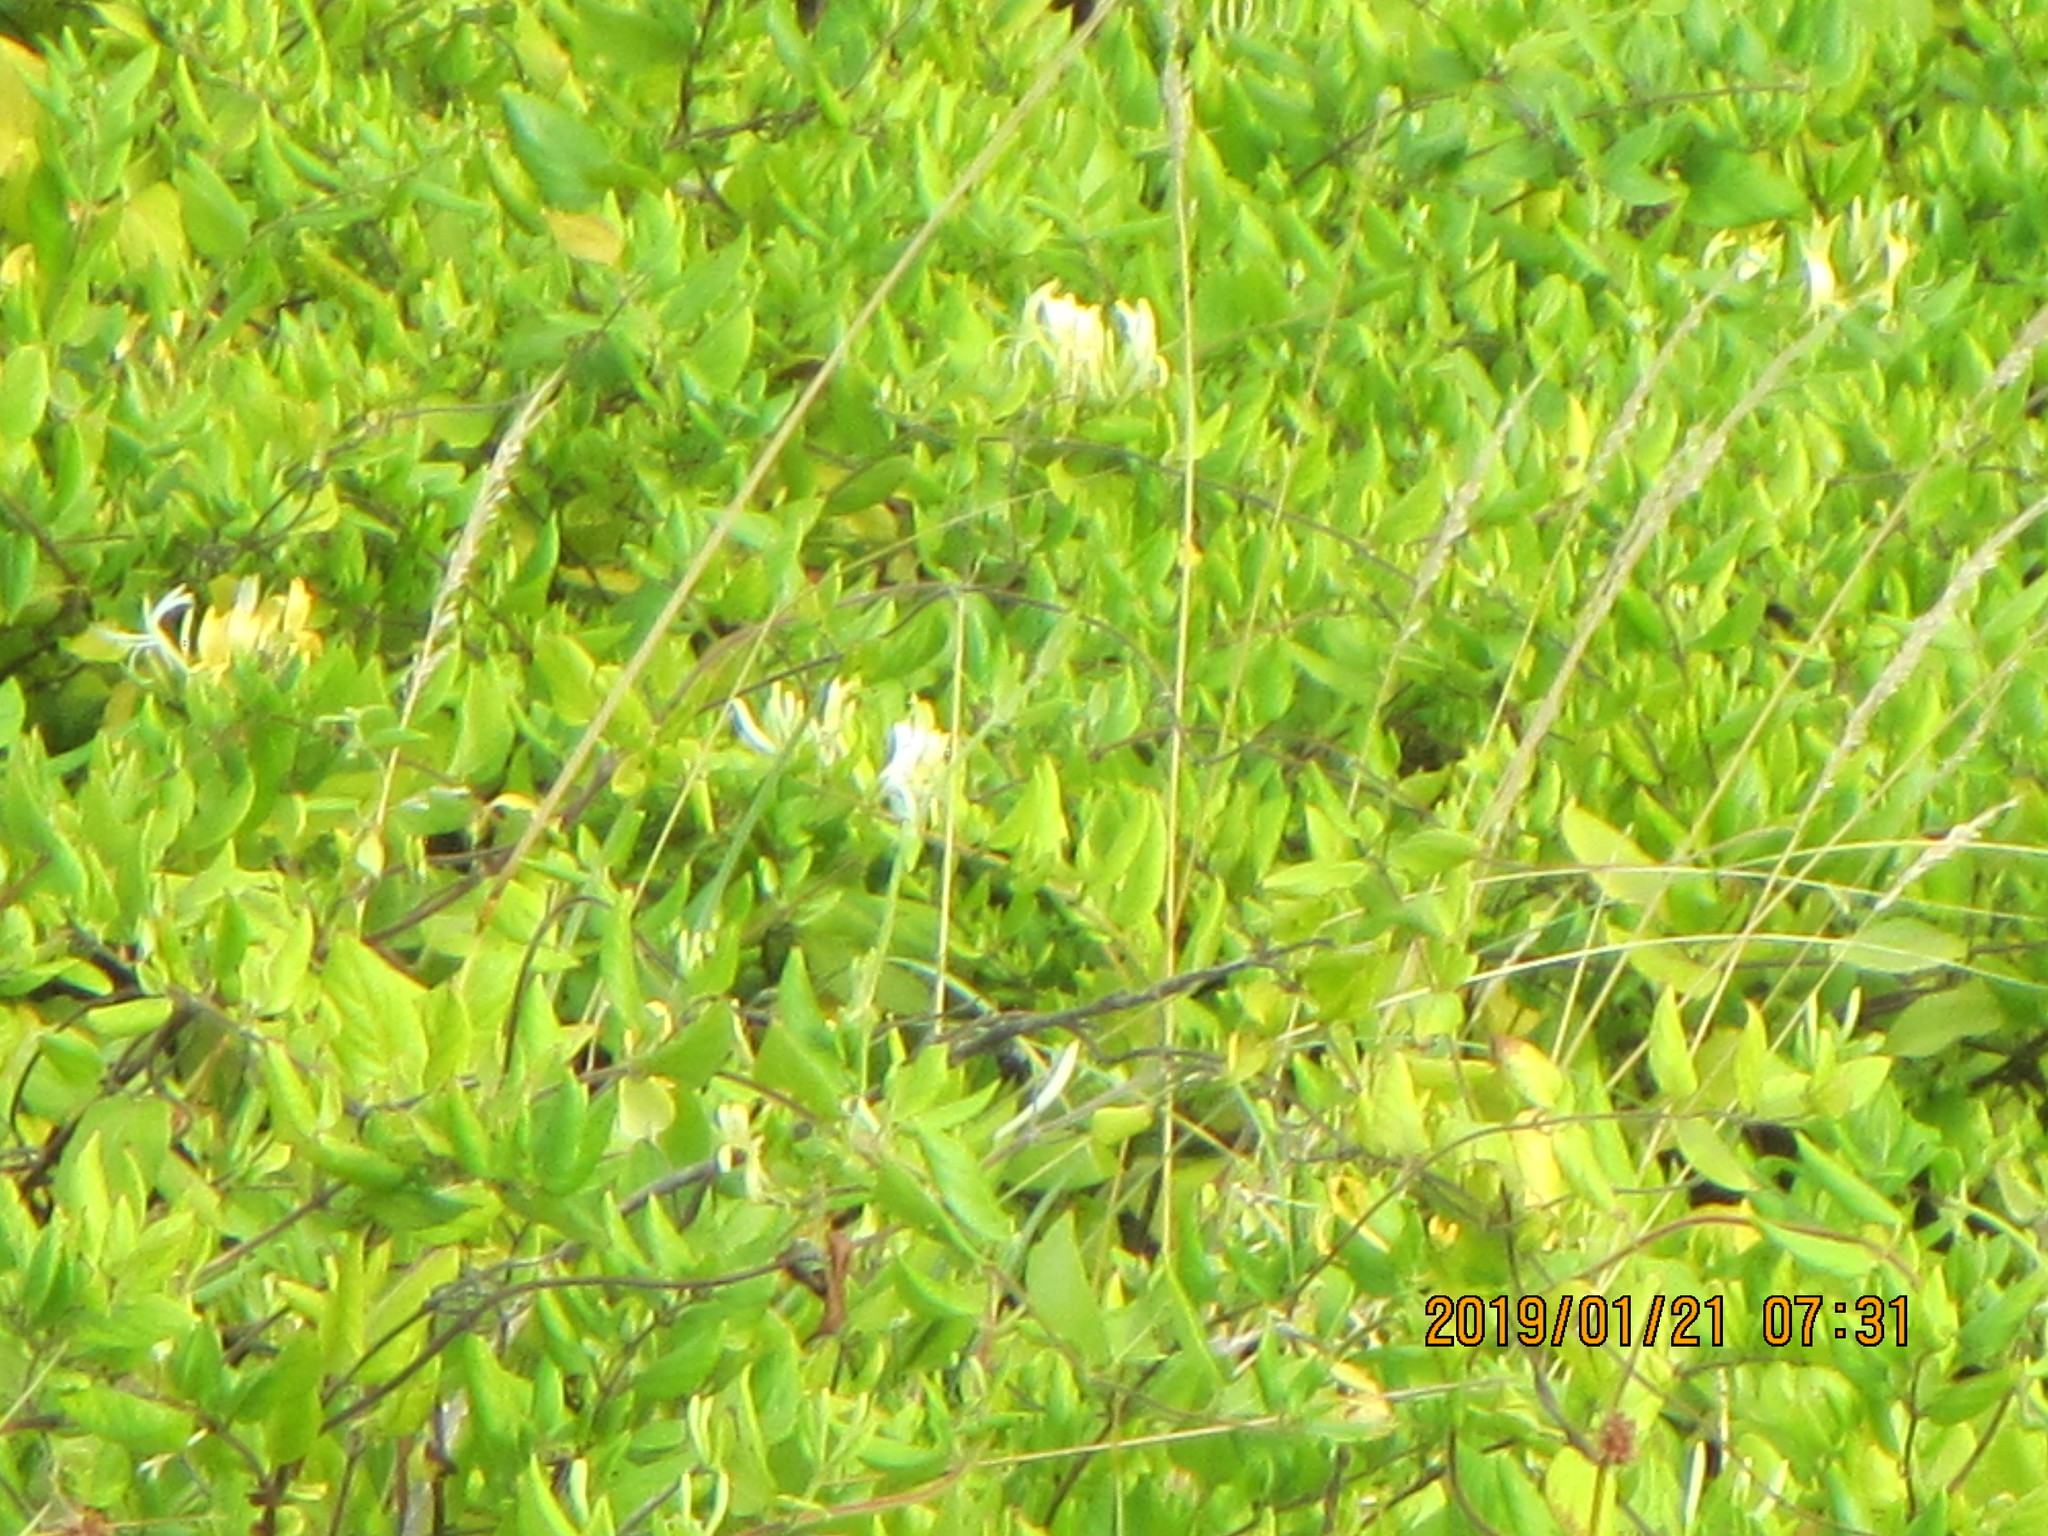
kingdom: Plantae
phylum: Tracheophyta
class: Magnoliopsida
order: Dipsacales
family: Caprifoliaceae
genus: Lonicera
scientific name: Lonicera japonica
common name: Japanese honeysuckle
